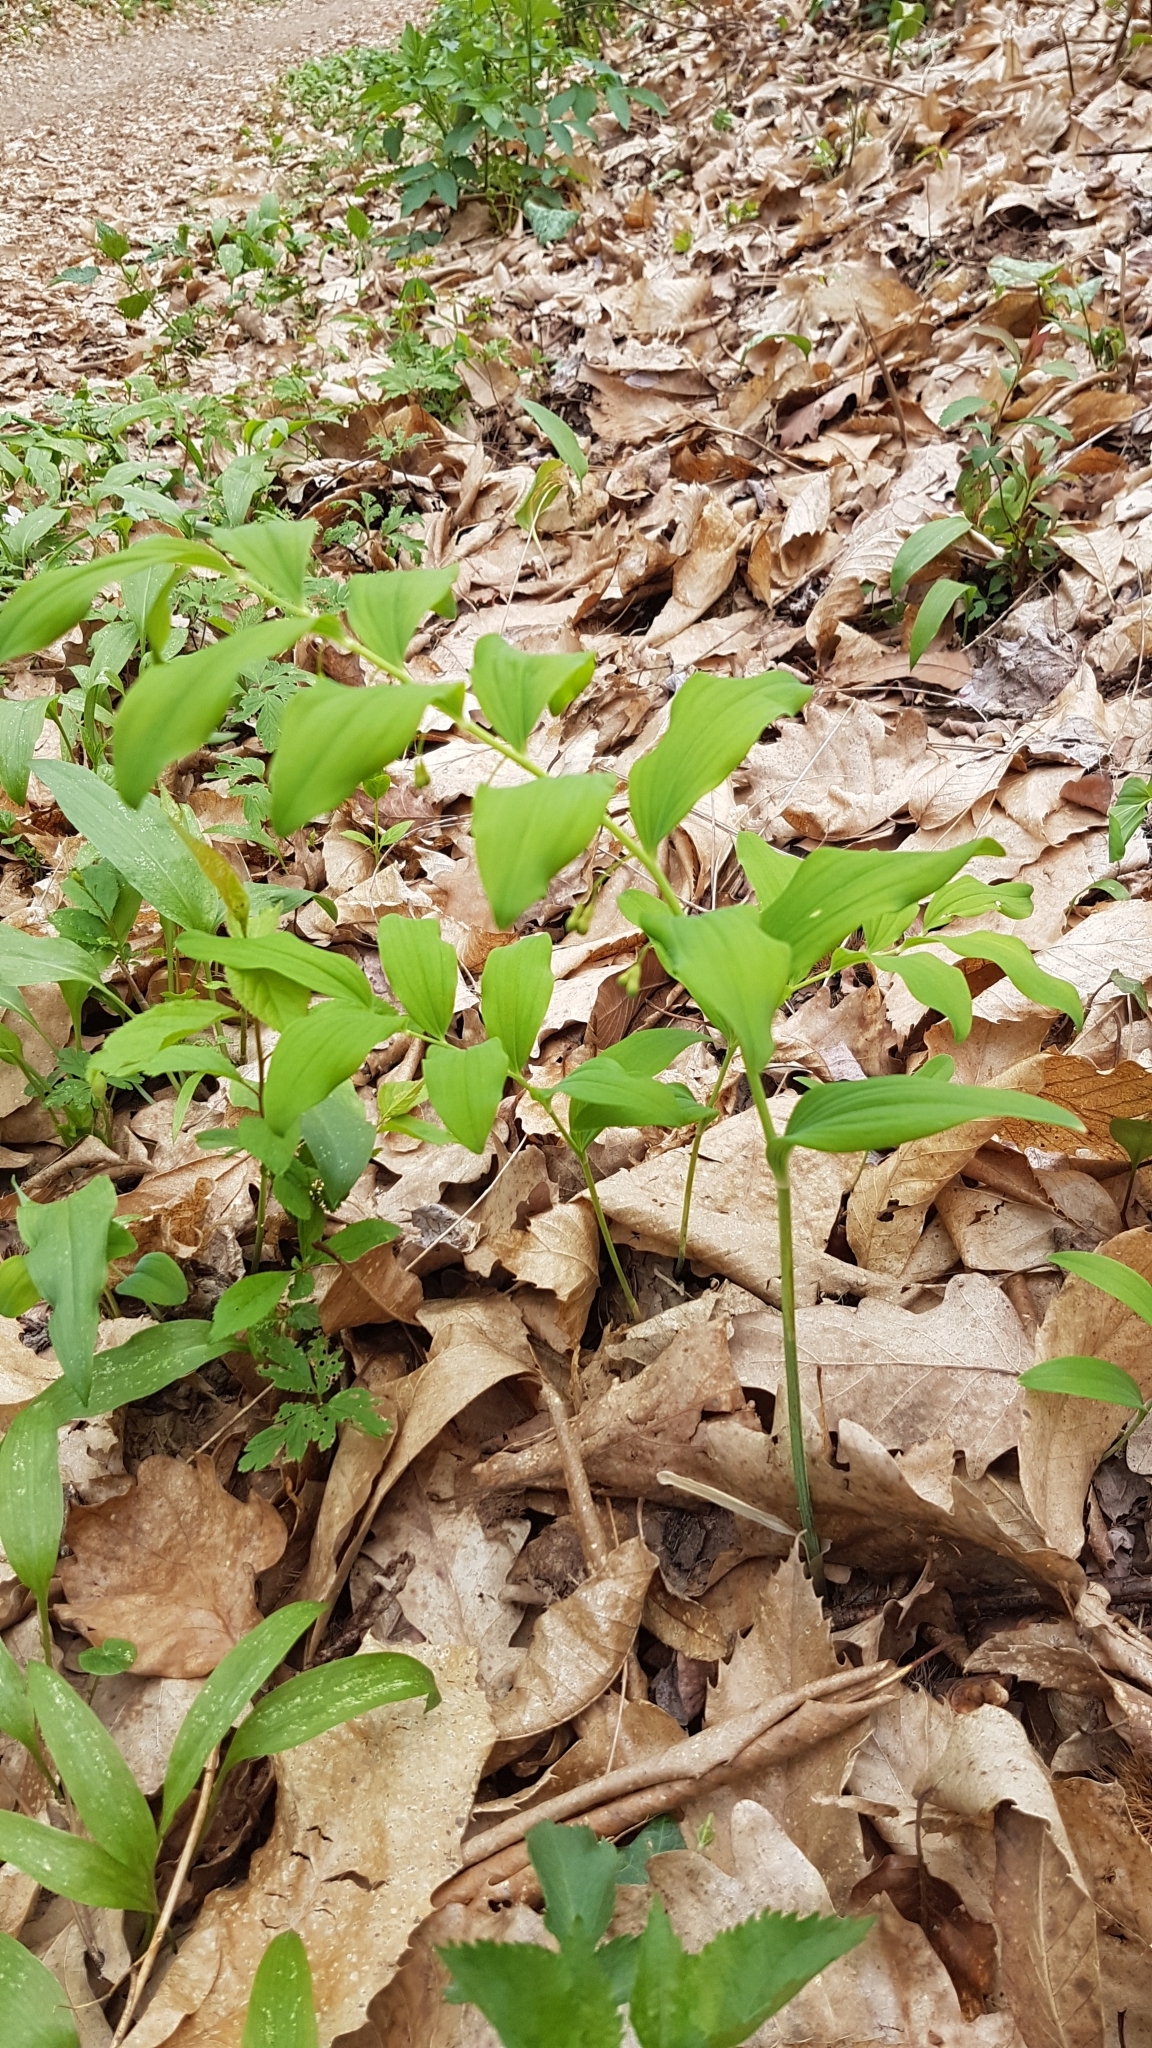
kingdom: Plantae
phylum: Tracheophyta
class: Liliopsida
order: Asparagales
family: Asparagaceae
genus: Polygonatum
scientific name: Polygonatum multiflorum
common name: Solomon's-seal
